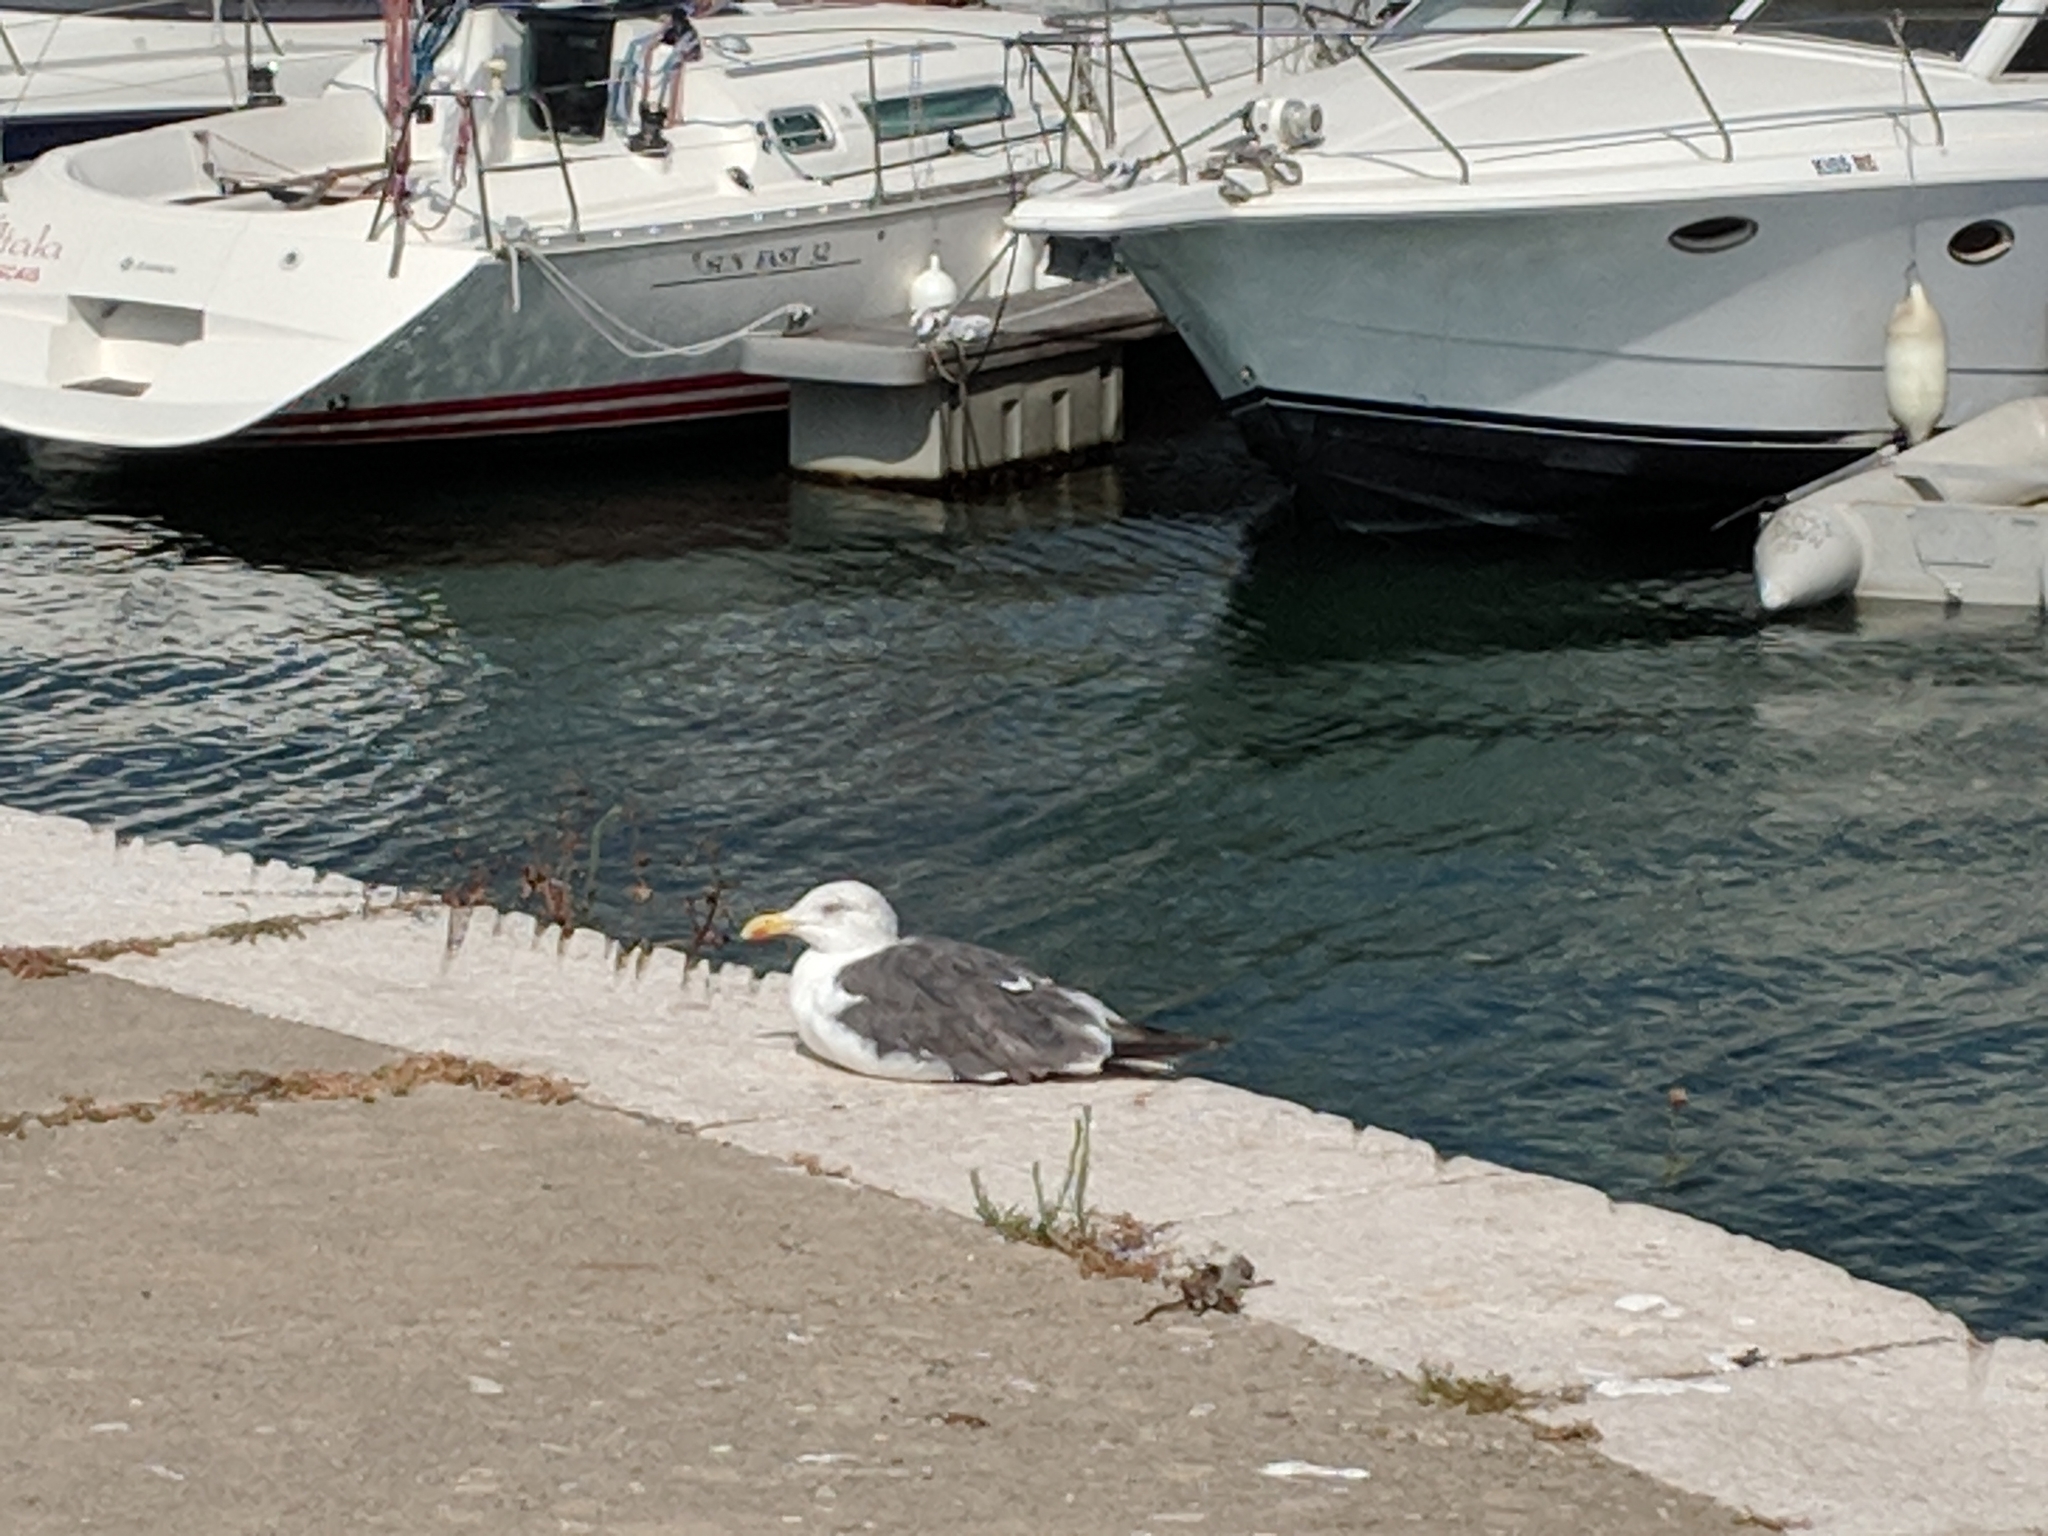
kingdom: Animalia
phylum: Chordata
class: Aves
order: Charadriiformes
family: Laridae
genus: Larus
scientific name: Larus fuscus
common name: Lesser black-backed gull
